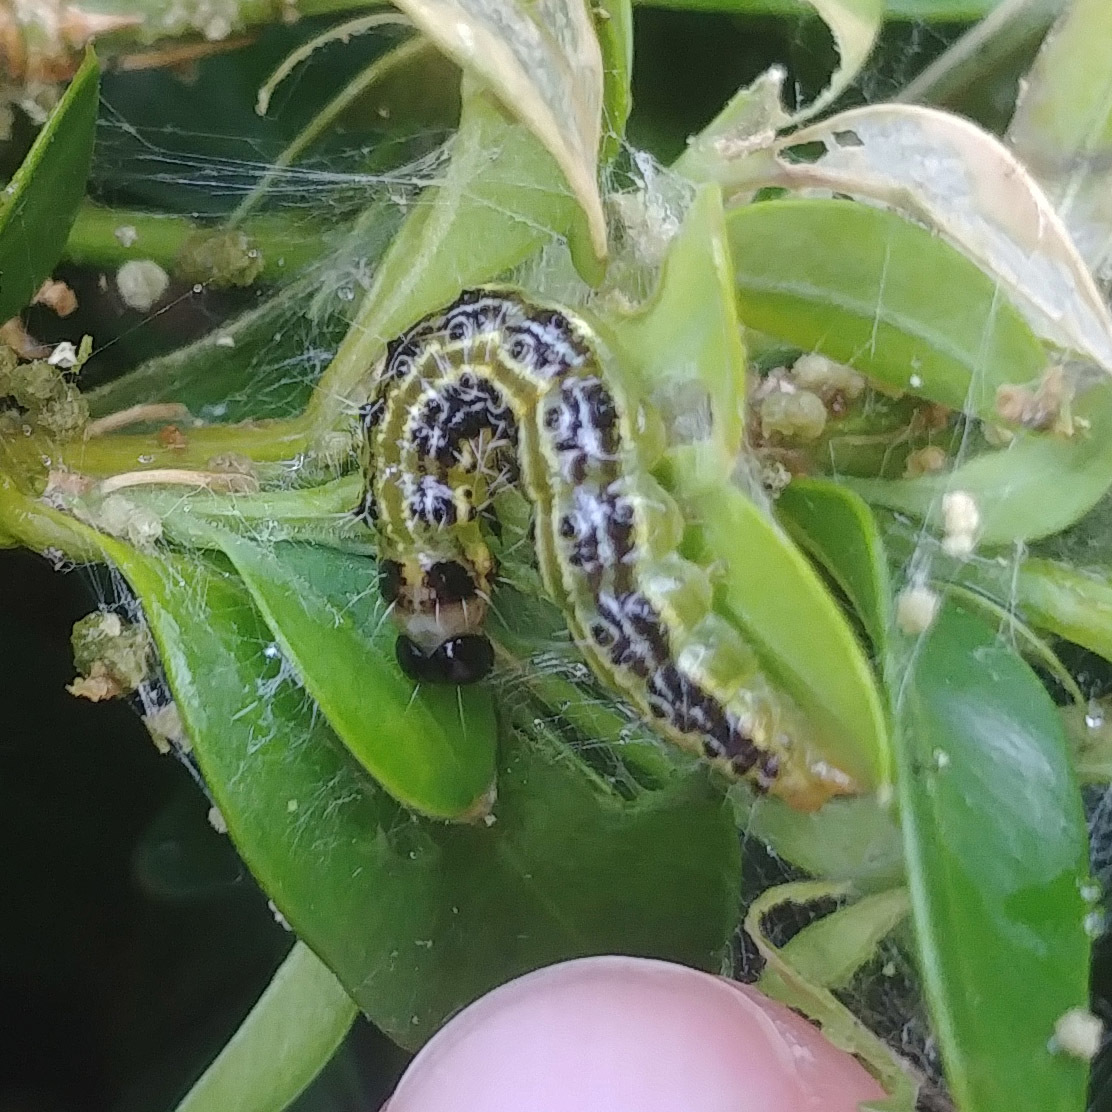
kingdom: Animalia
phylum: Arthropoda
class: Insecta
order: Lepidoptera
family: Crambidae
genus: Cydalima
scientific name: Cydalima perspectalis
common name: Box tree moth
